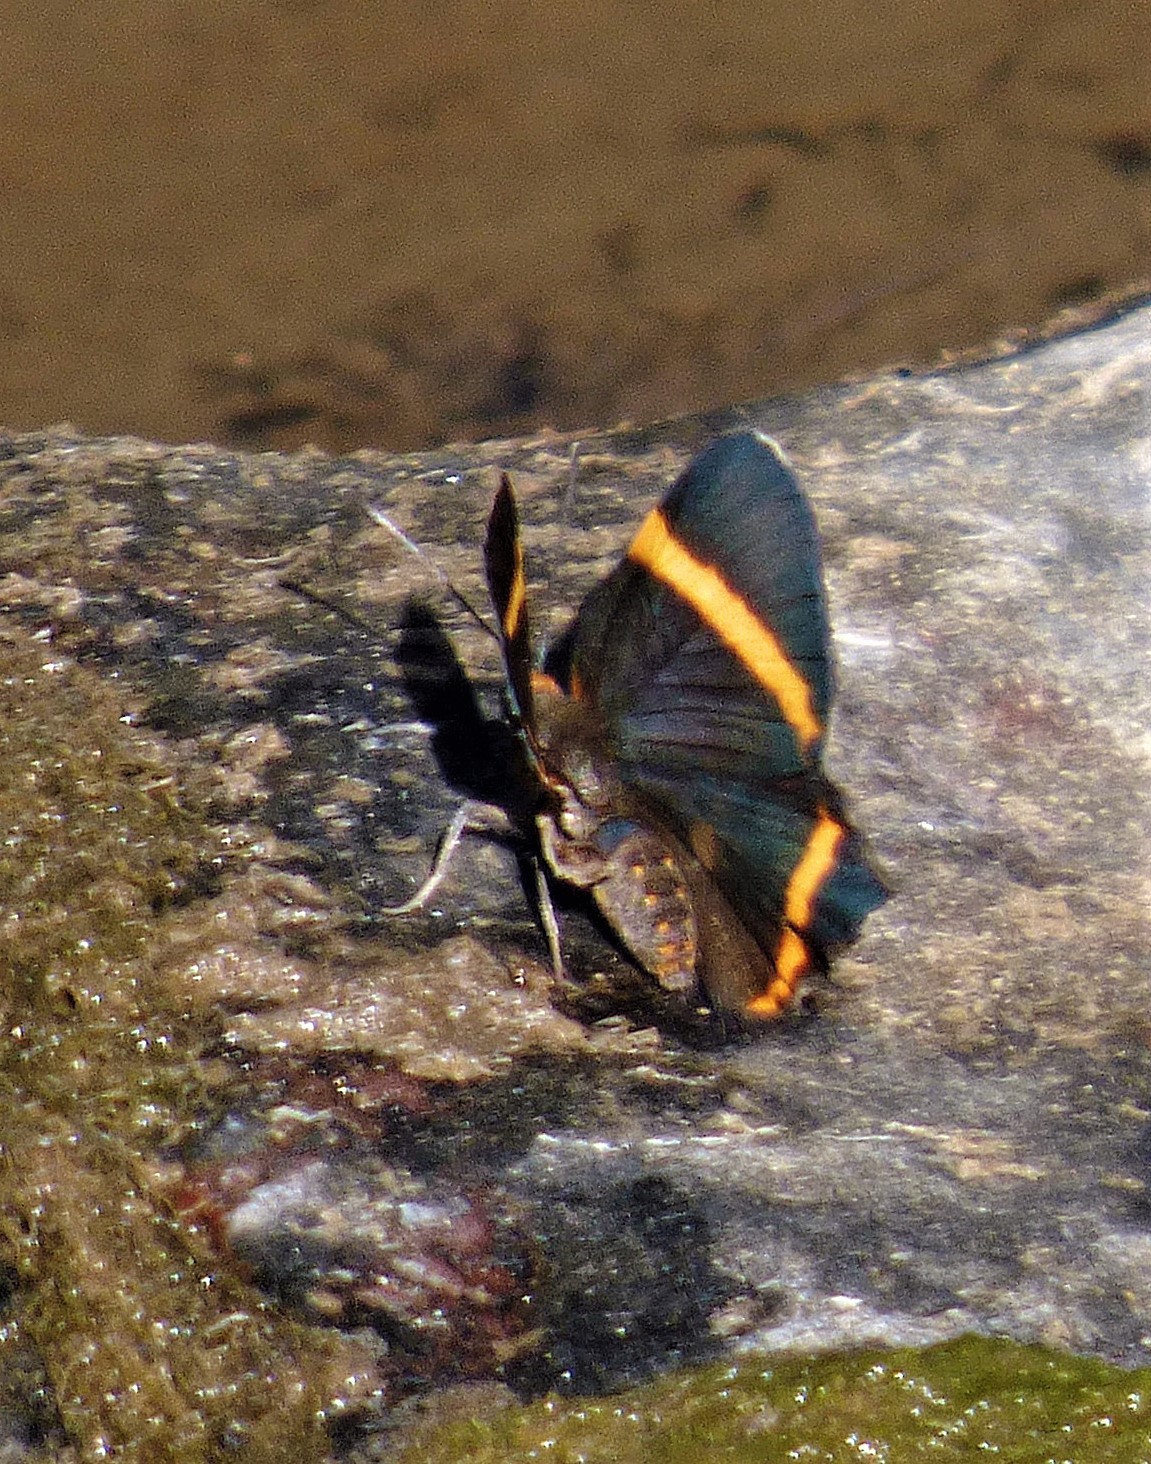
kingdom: Animalia
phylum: Arthropoda
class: Insecta
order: Lepidoptera
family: Riodinidae
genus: Riodina
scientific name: Riodina lysippoides
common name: Little dancer metalmark
